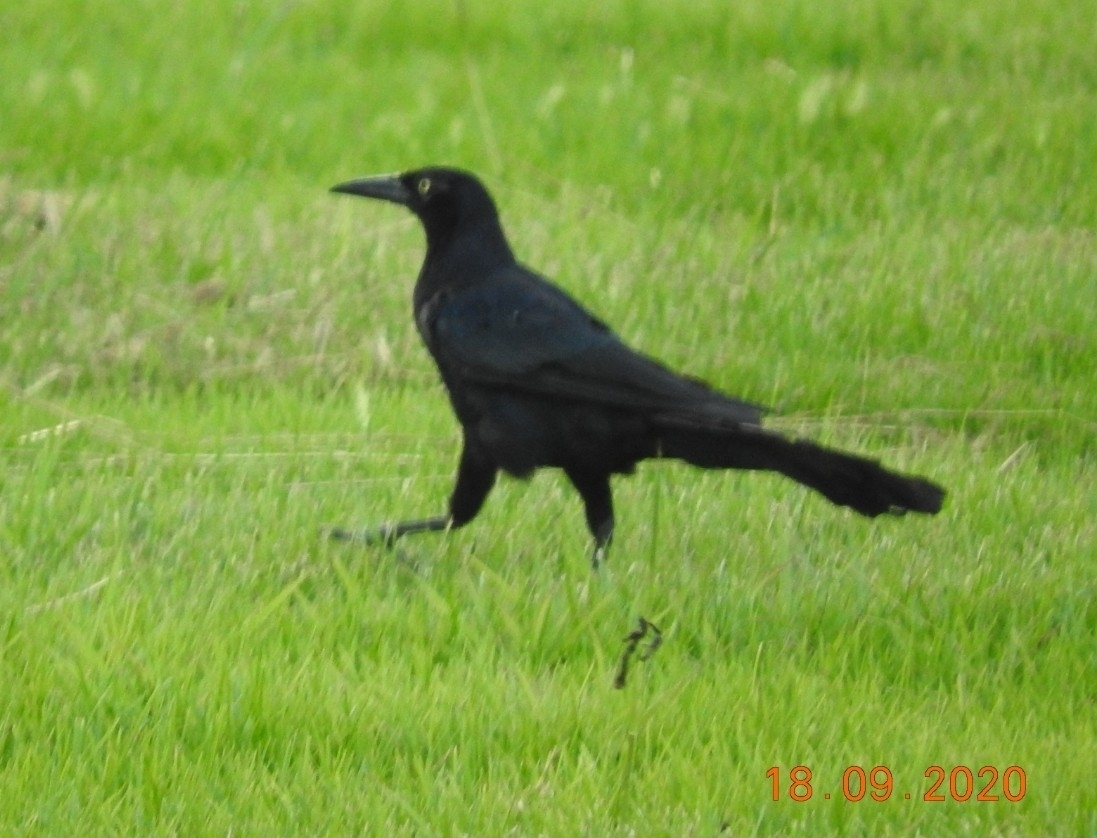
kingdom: Animalia
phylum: Chordata
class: Aves
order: Passeriformes
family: Icteridae
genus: Quiscalus
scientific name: Quiscalus mexicanus
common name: Great-tailed grackle
